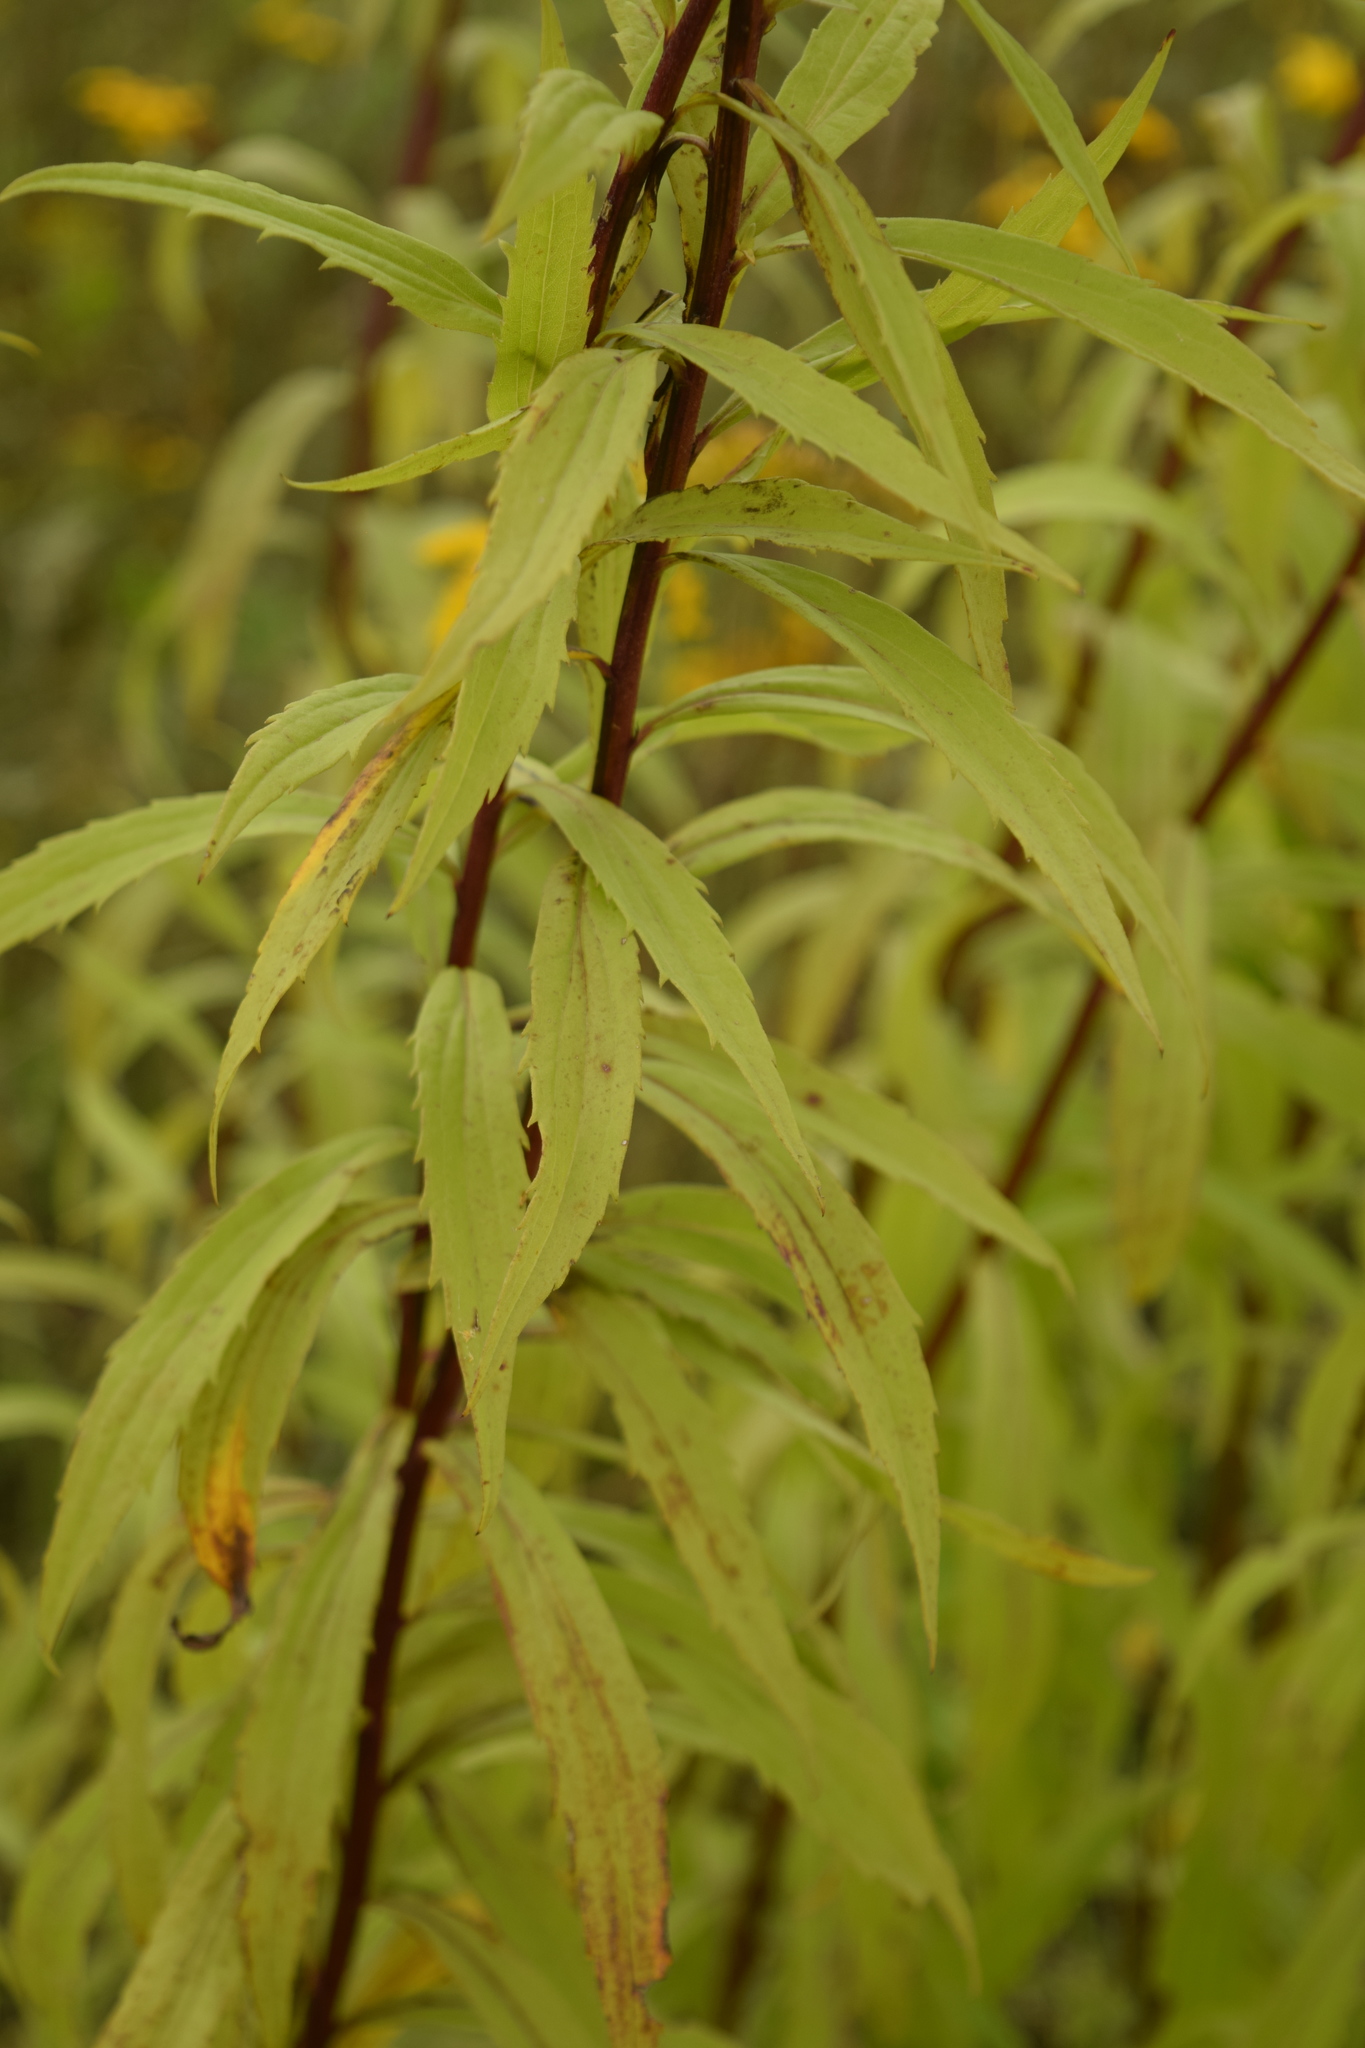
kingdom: Plantae
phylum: Tracheophyta
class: Magnoliopsida
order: Asterales
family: Asteraceae
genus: Solidago
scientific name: Solidago canadensis
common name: Canada goldenrod
